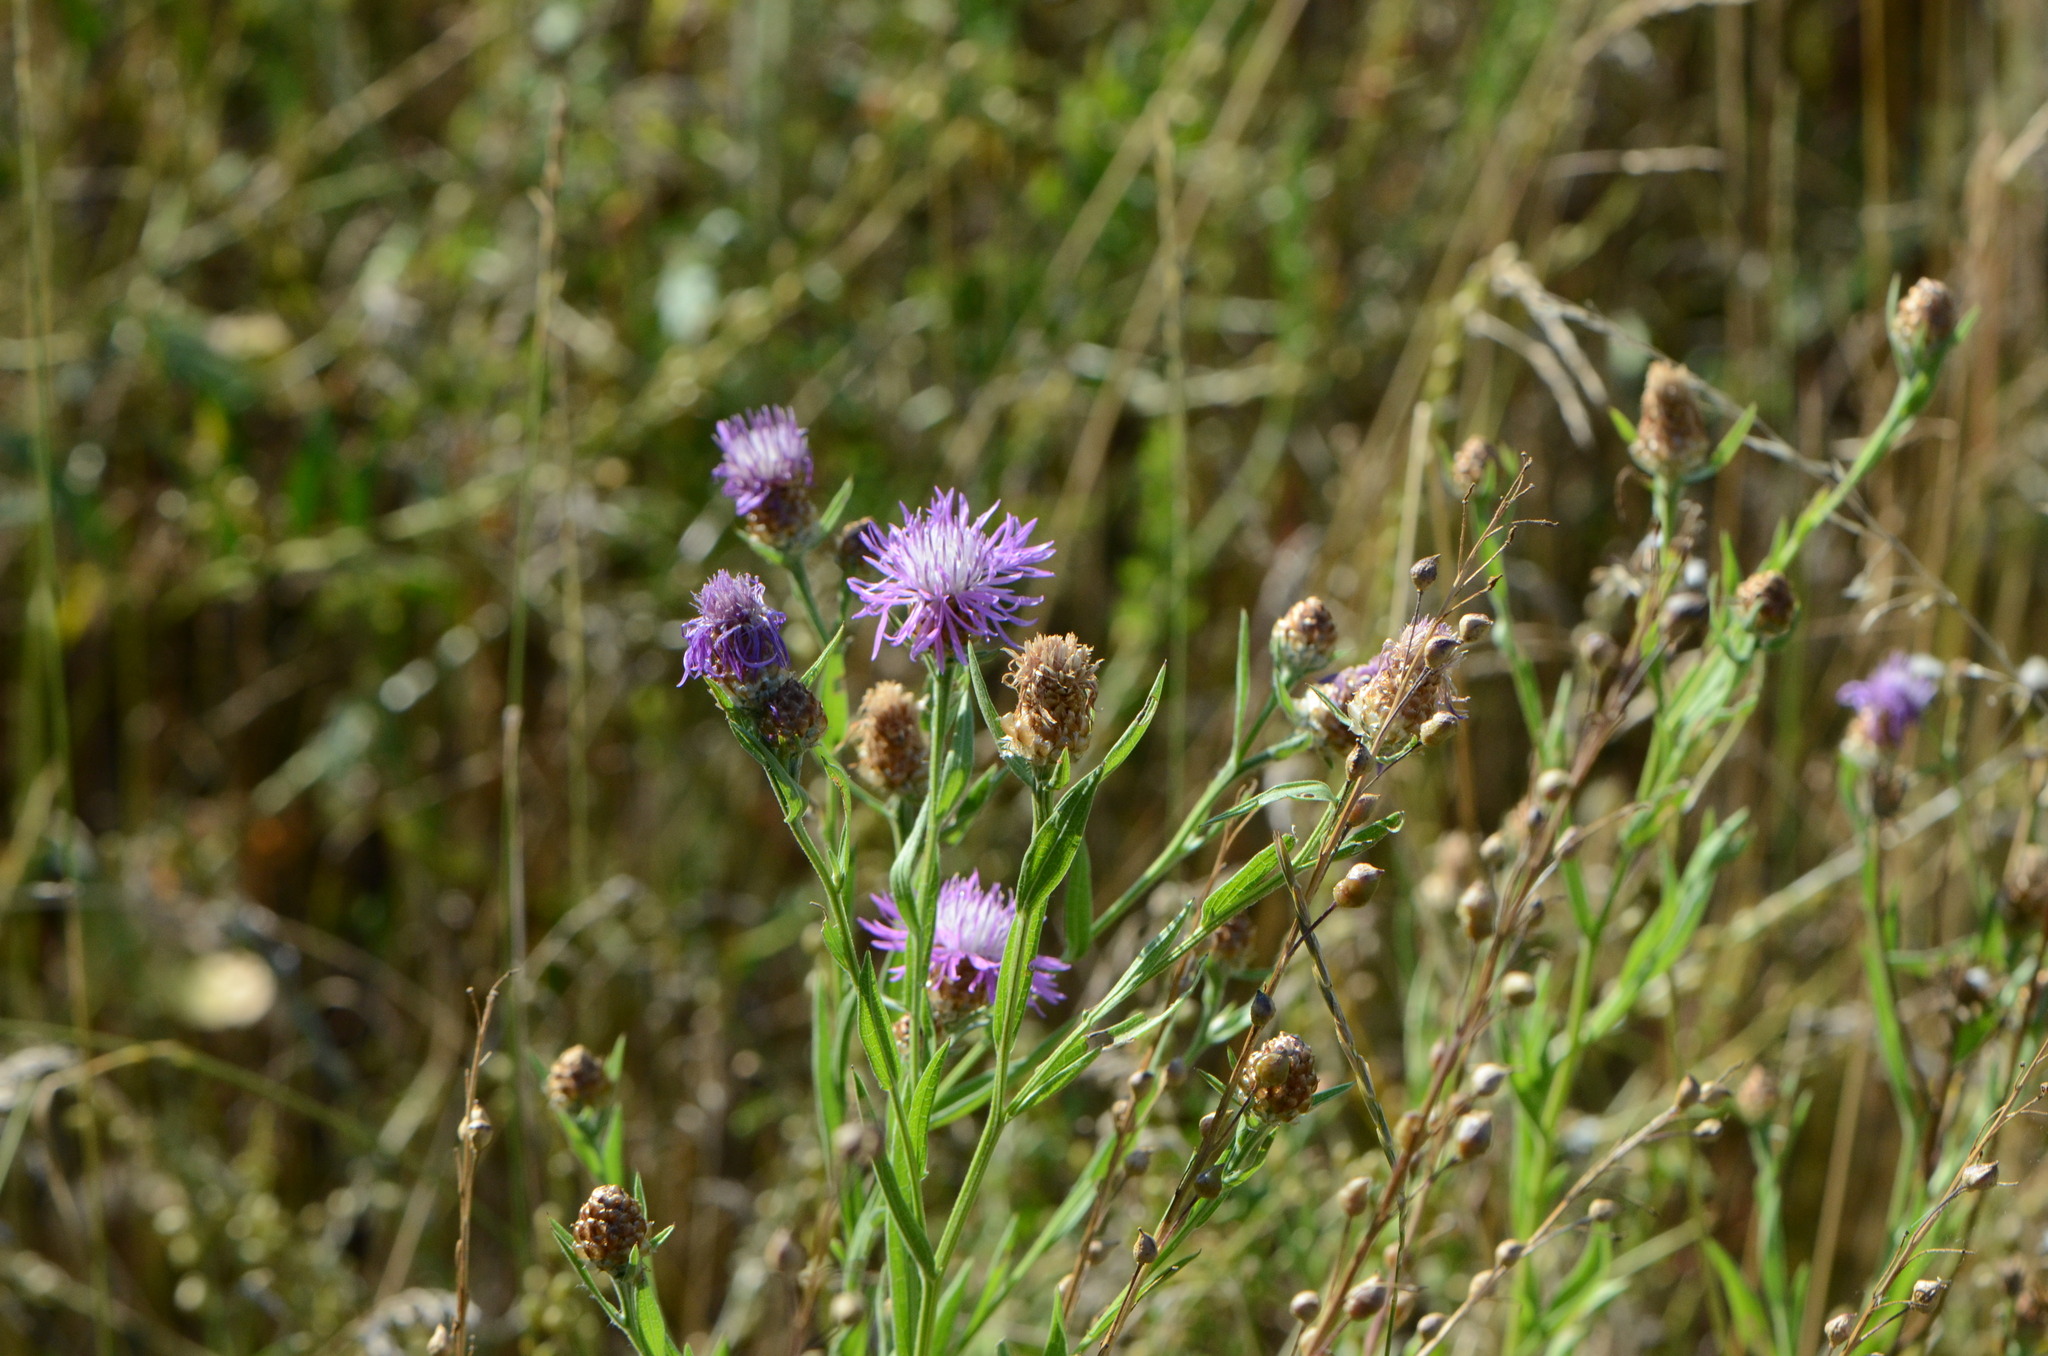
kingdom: Plantae
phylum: Tracheophyta
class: Magnoliopsida
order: Asterales
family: Asteraceae
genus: Centaurea
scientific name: Centaurea jacea
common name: Brown knapweed
